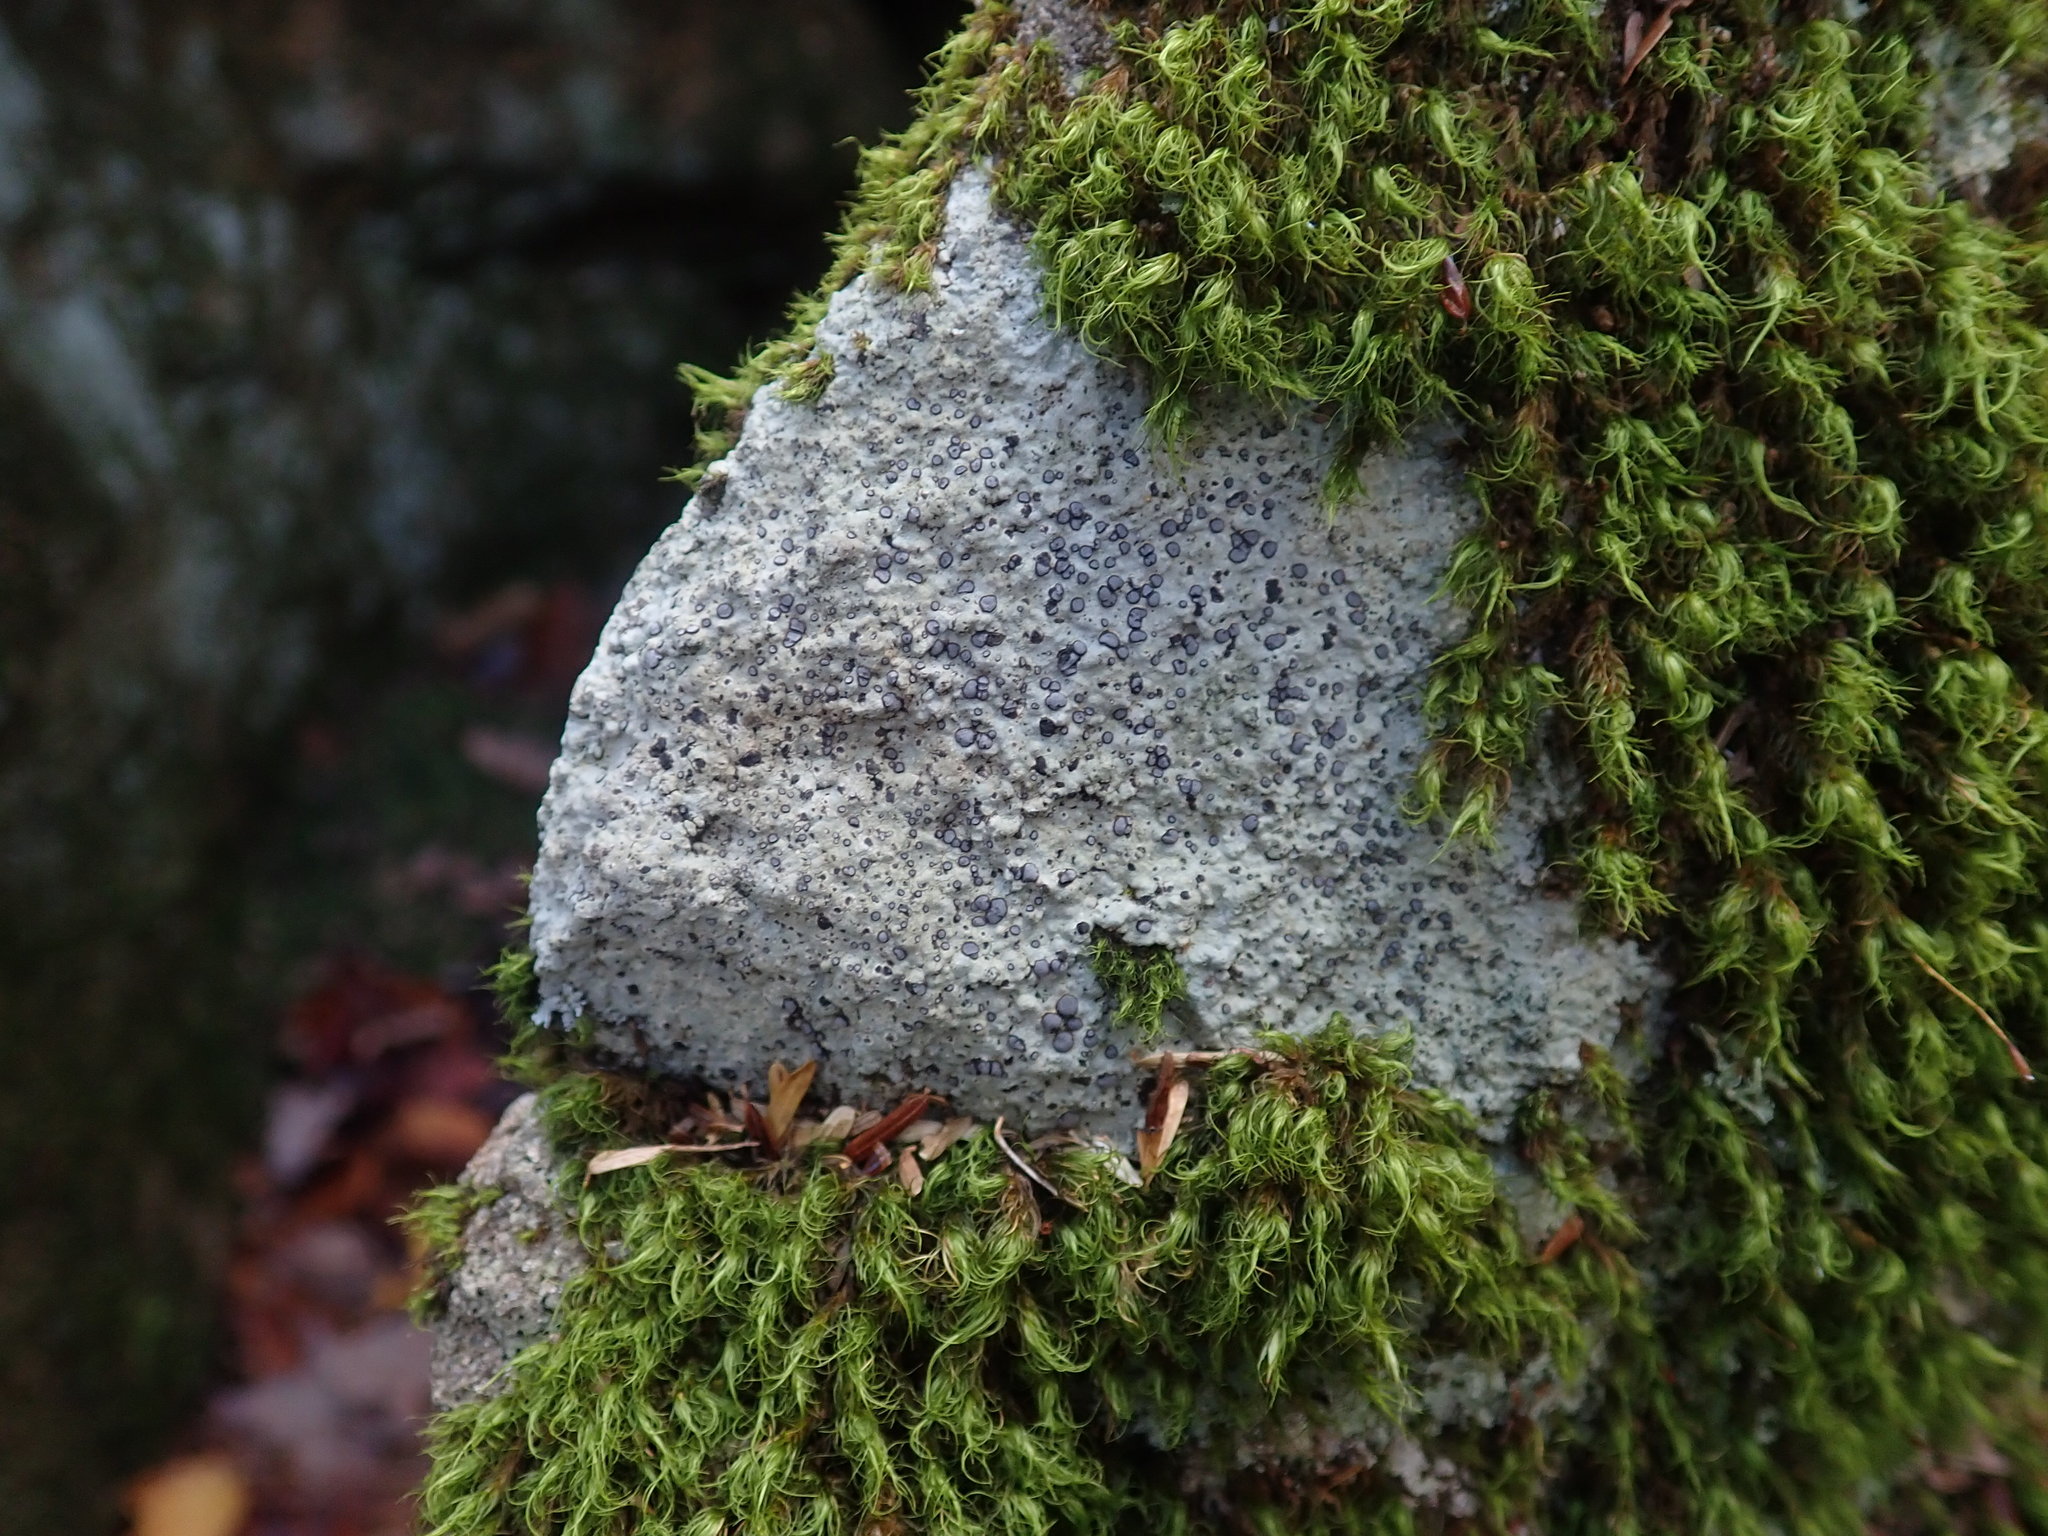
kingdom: Fungi
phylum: Ascomycota
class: Lecanoromycetes
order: Lecideales
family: Lecideaceae
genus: Porpidia
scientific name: Porpidia albocaerulescens
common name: Smokey-eyed boulder lichen
